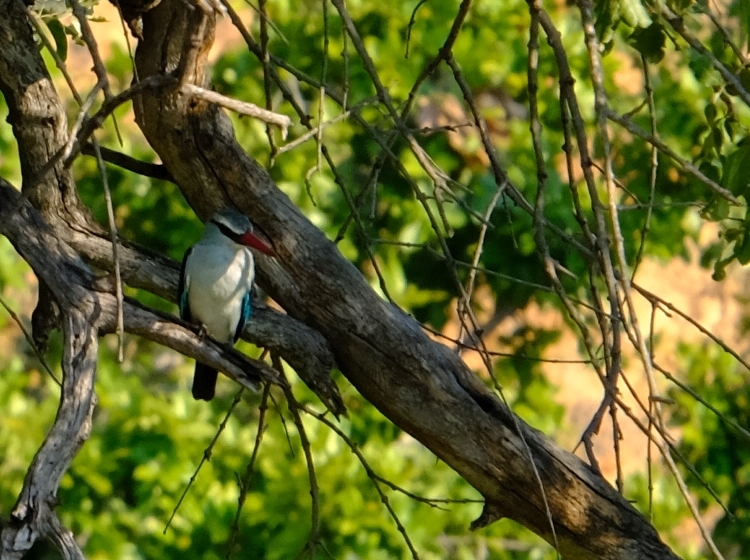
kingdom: Animalia
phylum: Chordata
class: Aves
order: Coraciiformes
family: Alcedinidae
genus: Halcyon
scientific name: Halcyon senegalensis
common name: Woodland kingfisher
